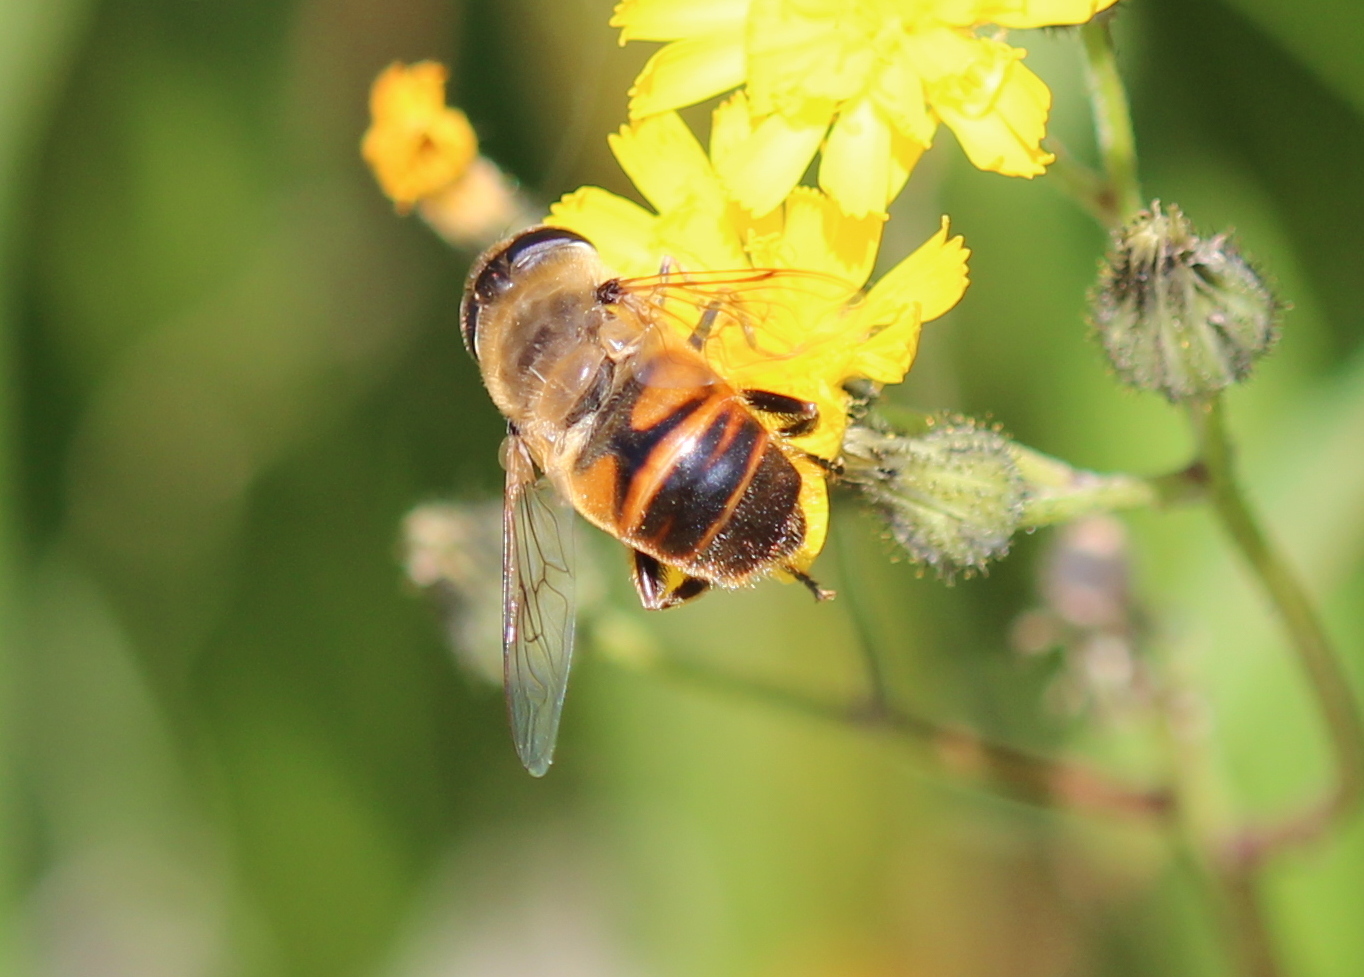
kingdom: Animalia
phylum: Arthropoda
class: Insecta
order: Diptera
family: Syrphidae
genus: Eristalis
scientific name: Eristalis tenax
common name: Drone fly
